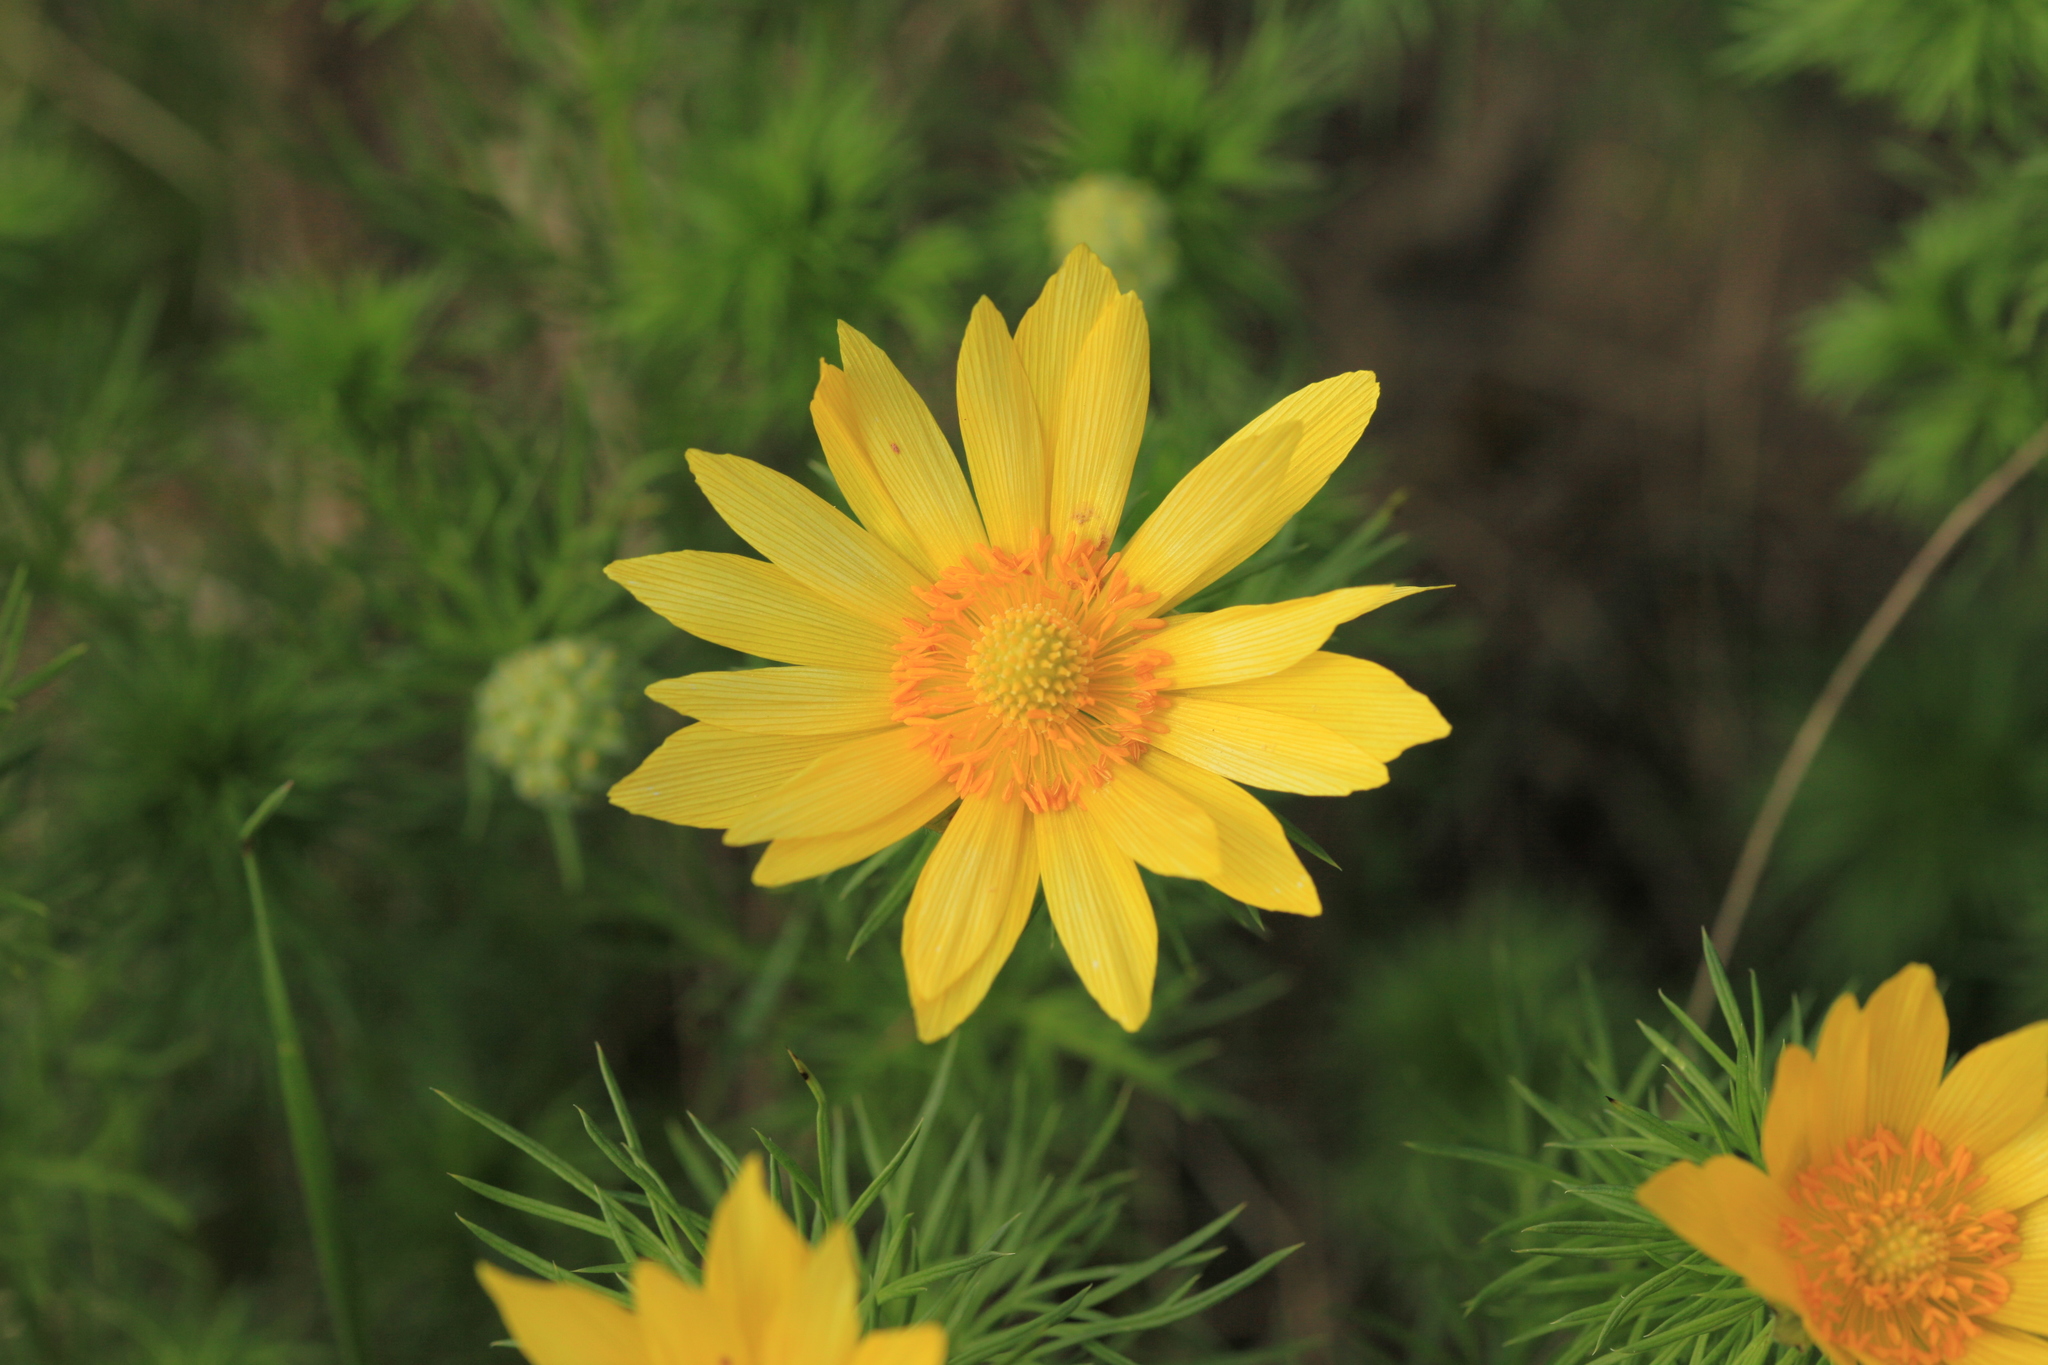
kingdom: Plantae
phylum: Tracheophyta
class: Magnoliopsida
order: Ranunculales
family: Ranunculaceae
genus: Adonis
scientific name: Adonis vernalis
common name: Yellow pheasants-eye
